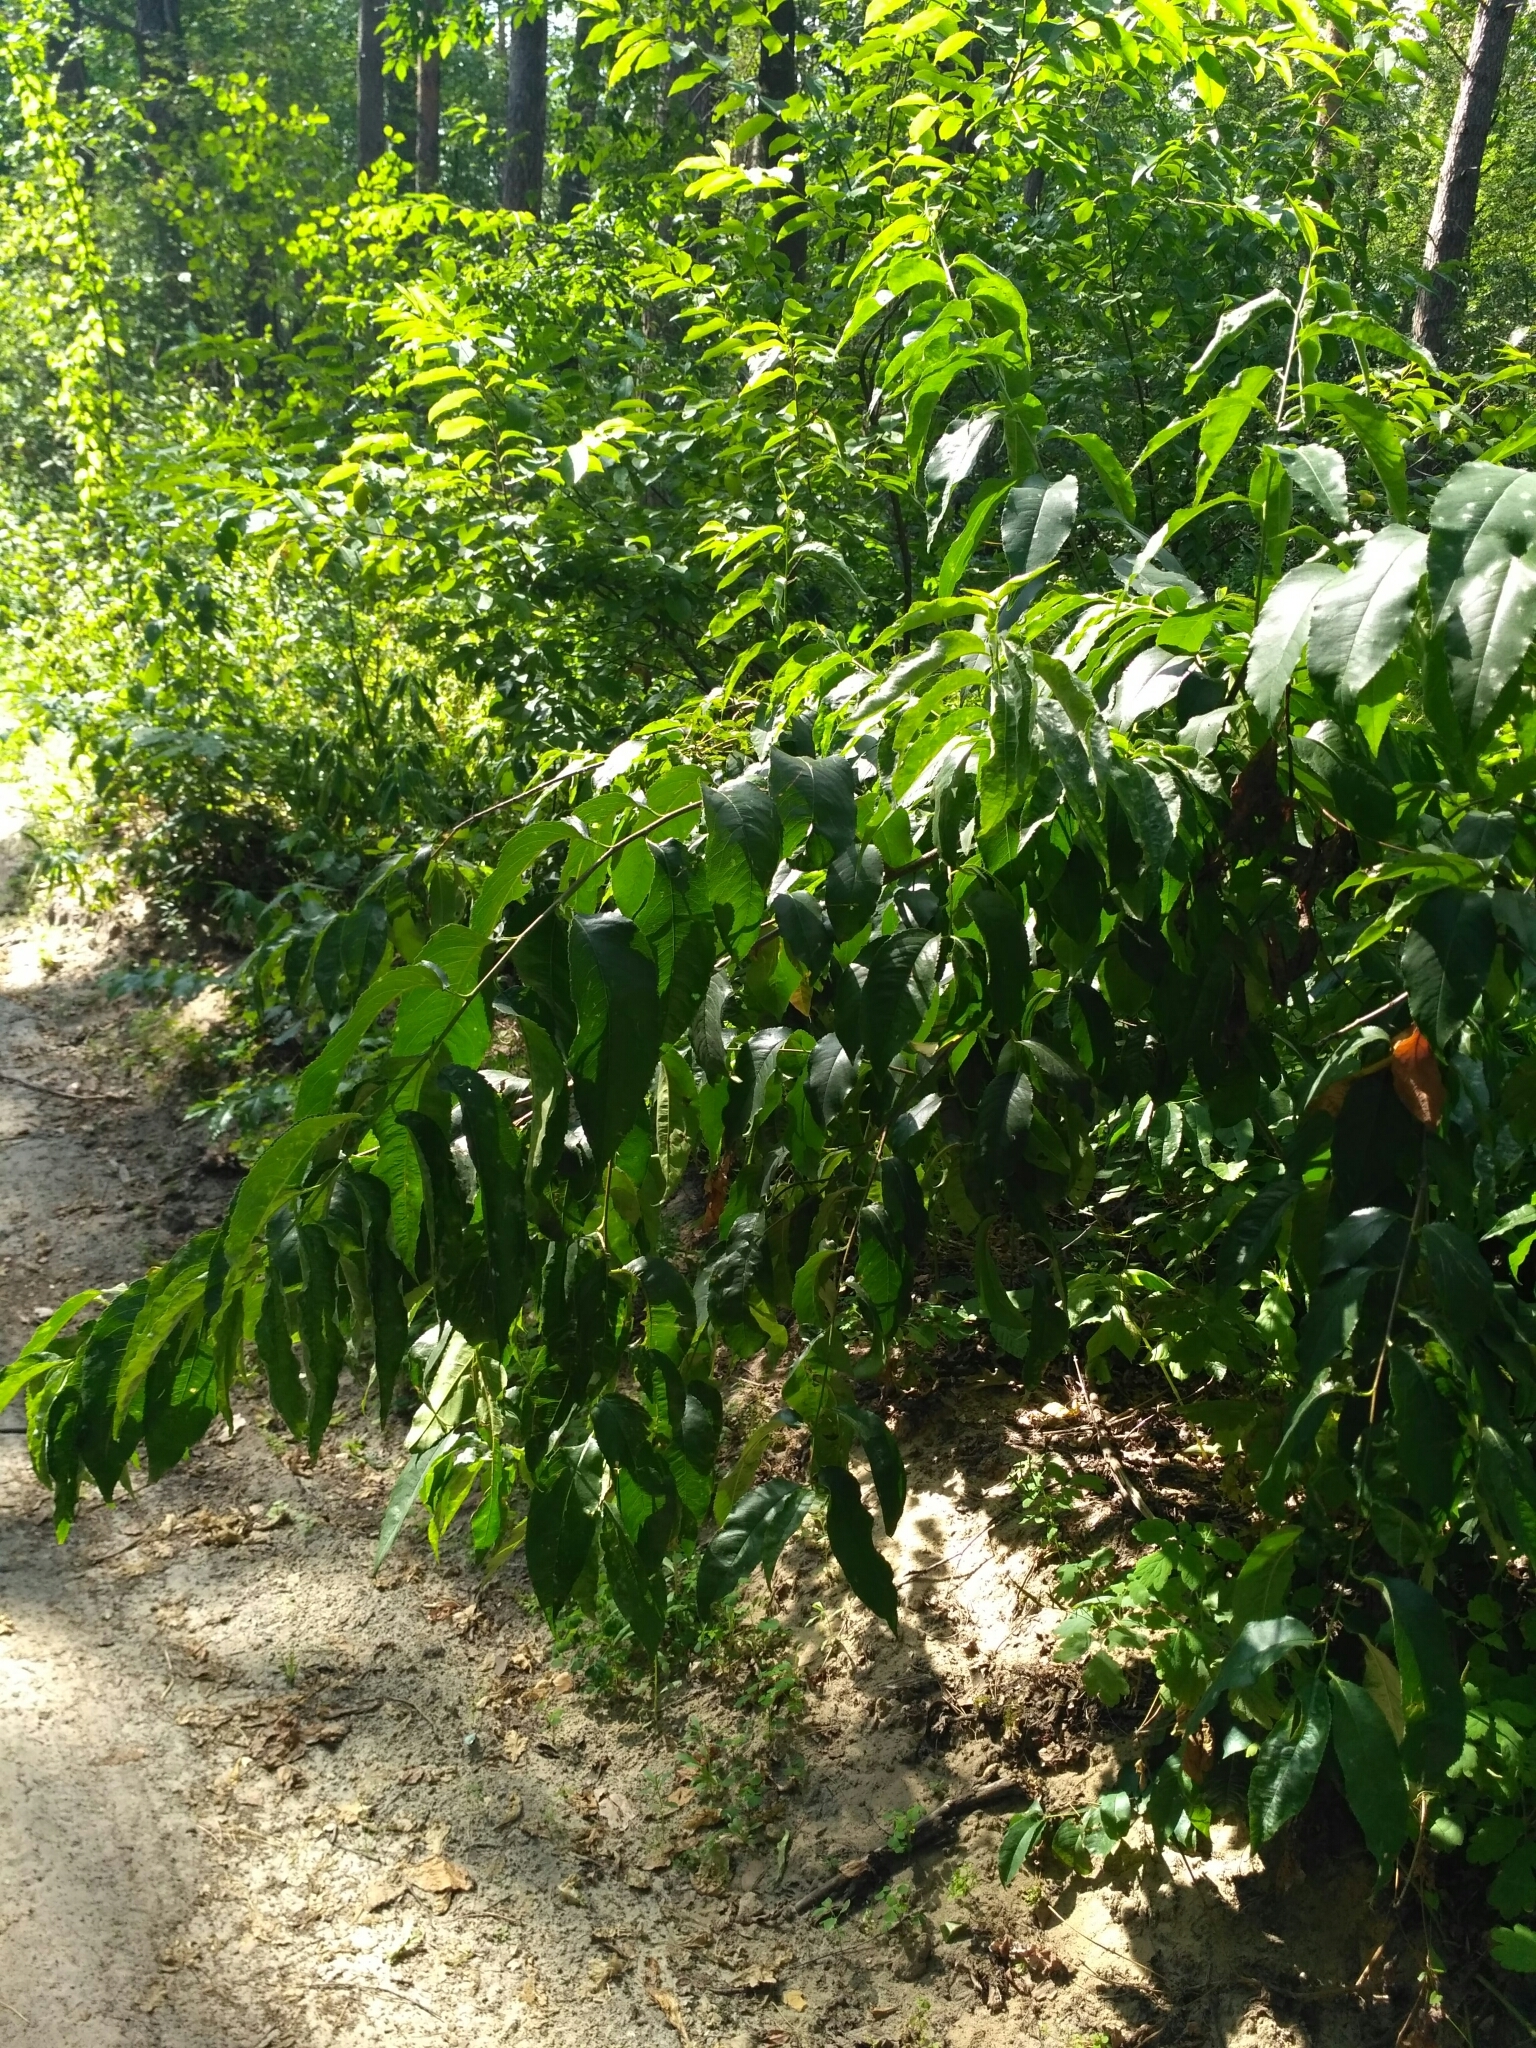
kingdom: Plantae
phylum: Tracheophyta
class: Magnoliopsida
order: Rosales
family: Rosaceae
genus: Prunus
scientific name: Prunus serotina
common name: Black cherry
